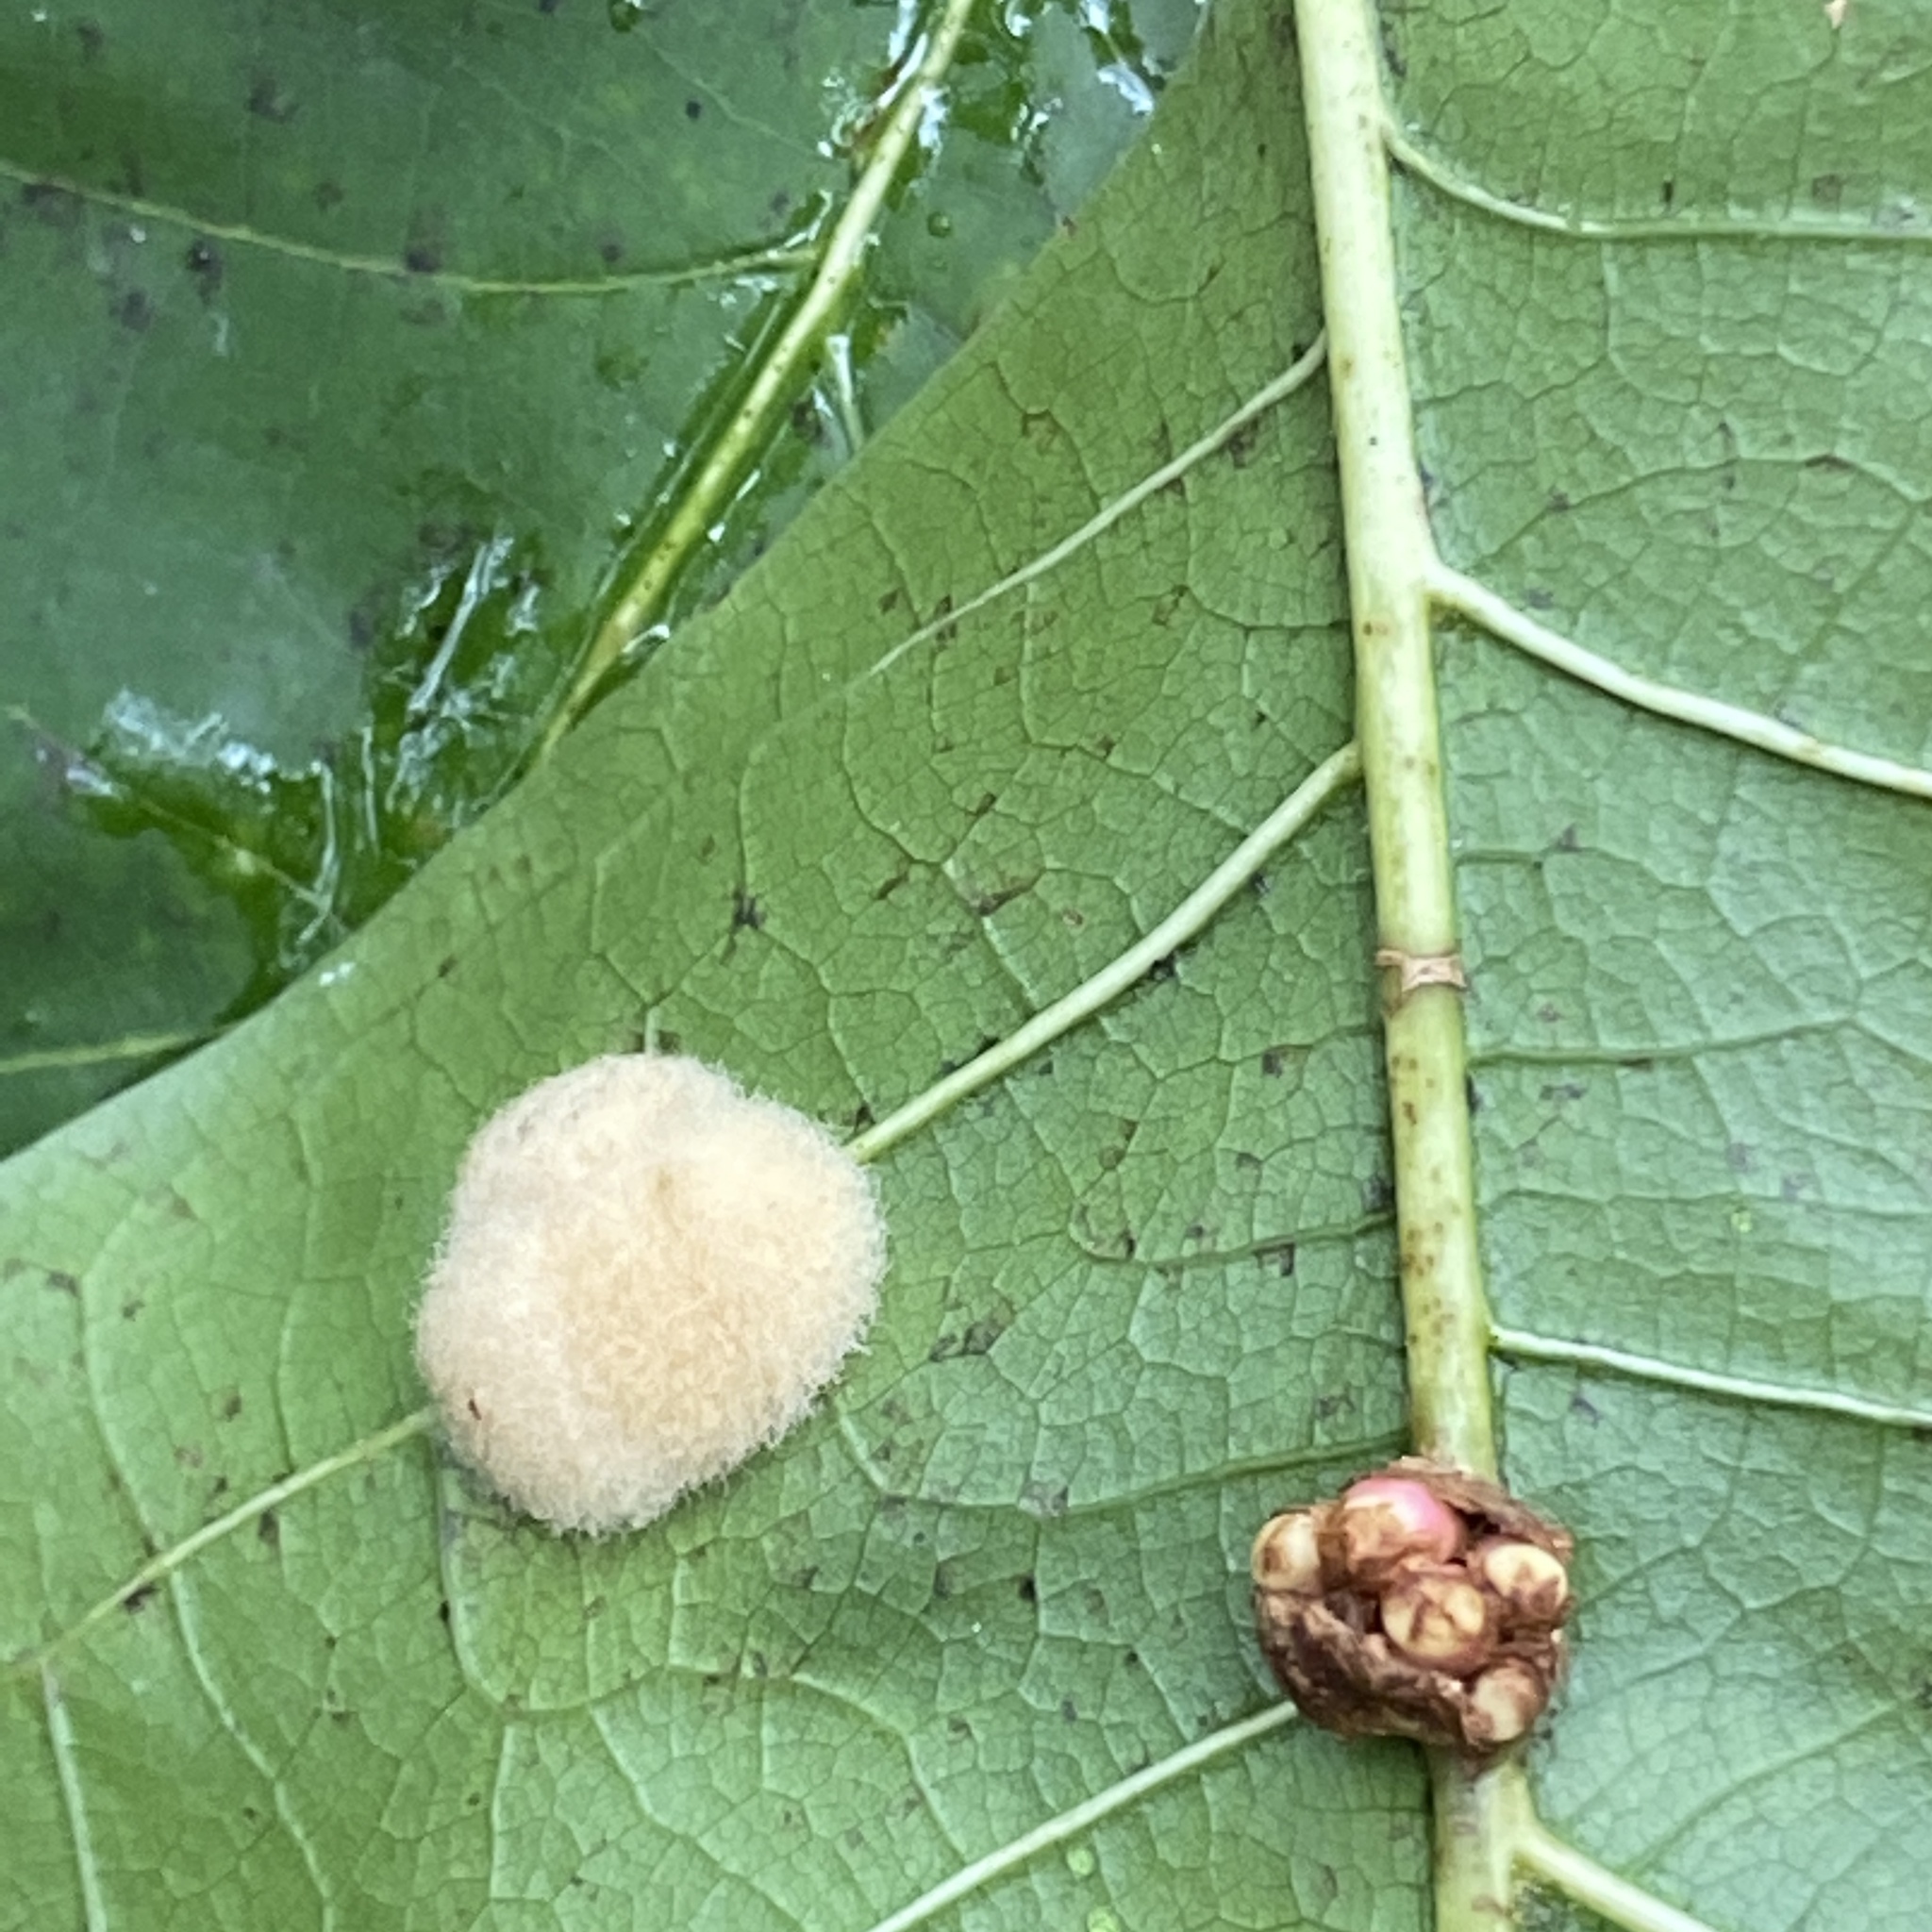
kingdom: Animalia
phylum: Arthropoda
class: Insecta
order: Hymenoptera
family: Cynipidae
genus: Callirhytis
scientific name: Callirhytis
